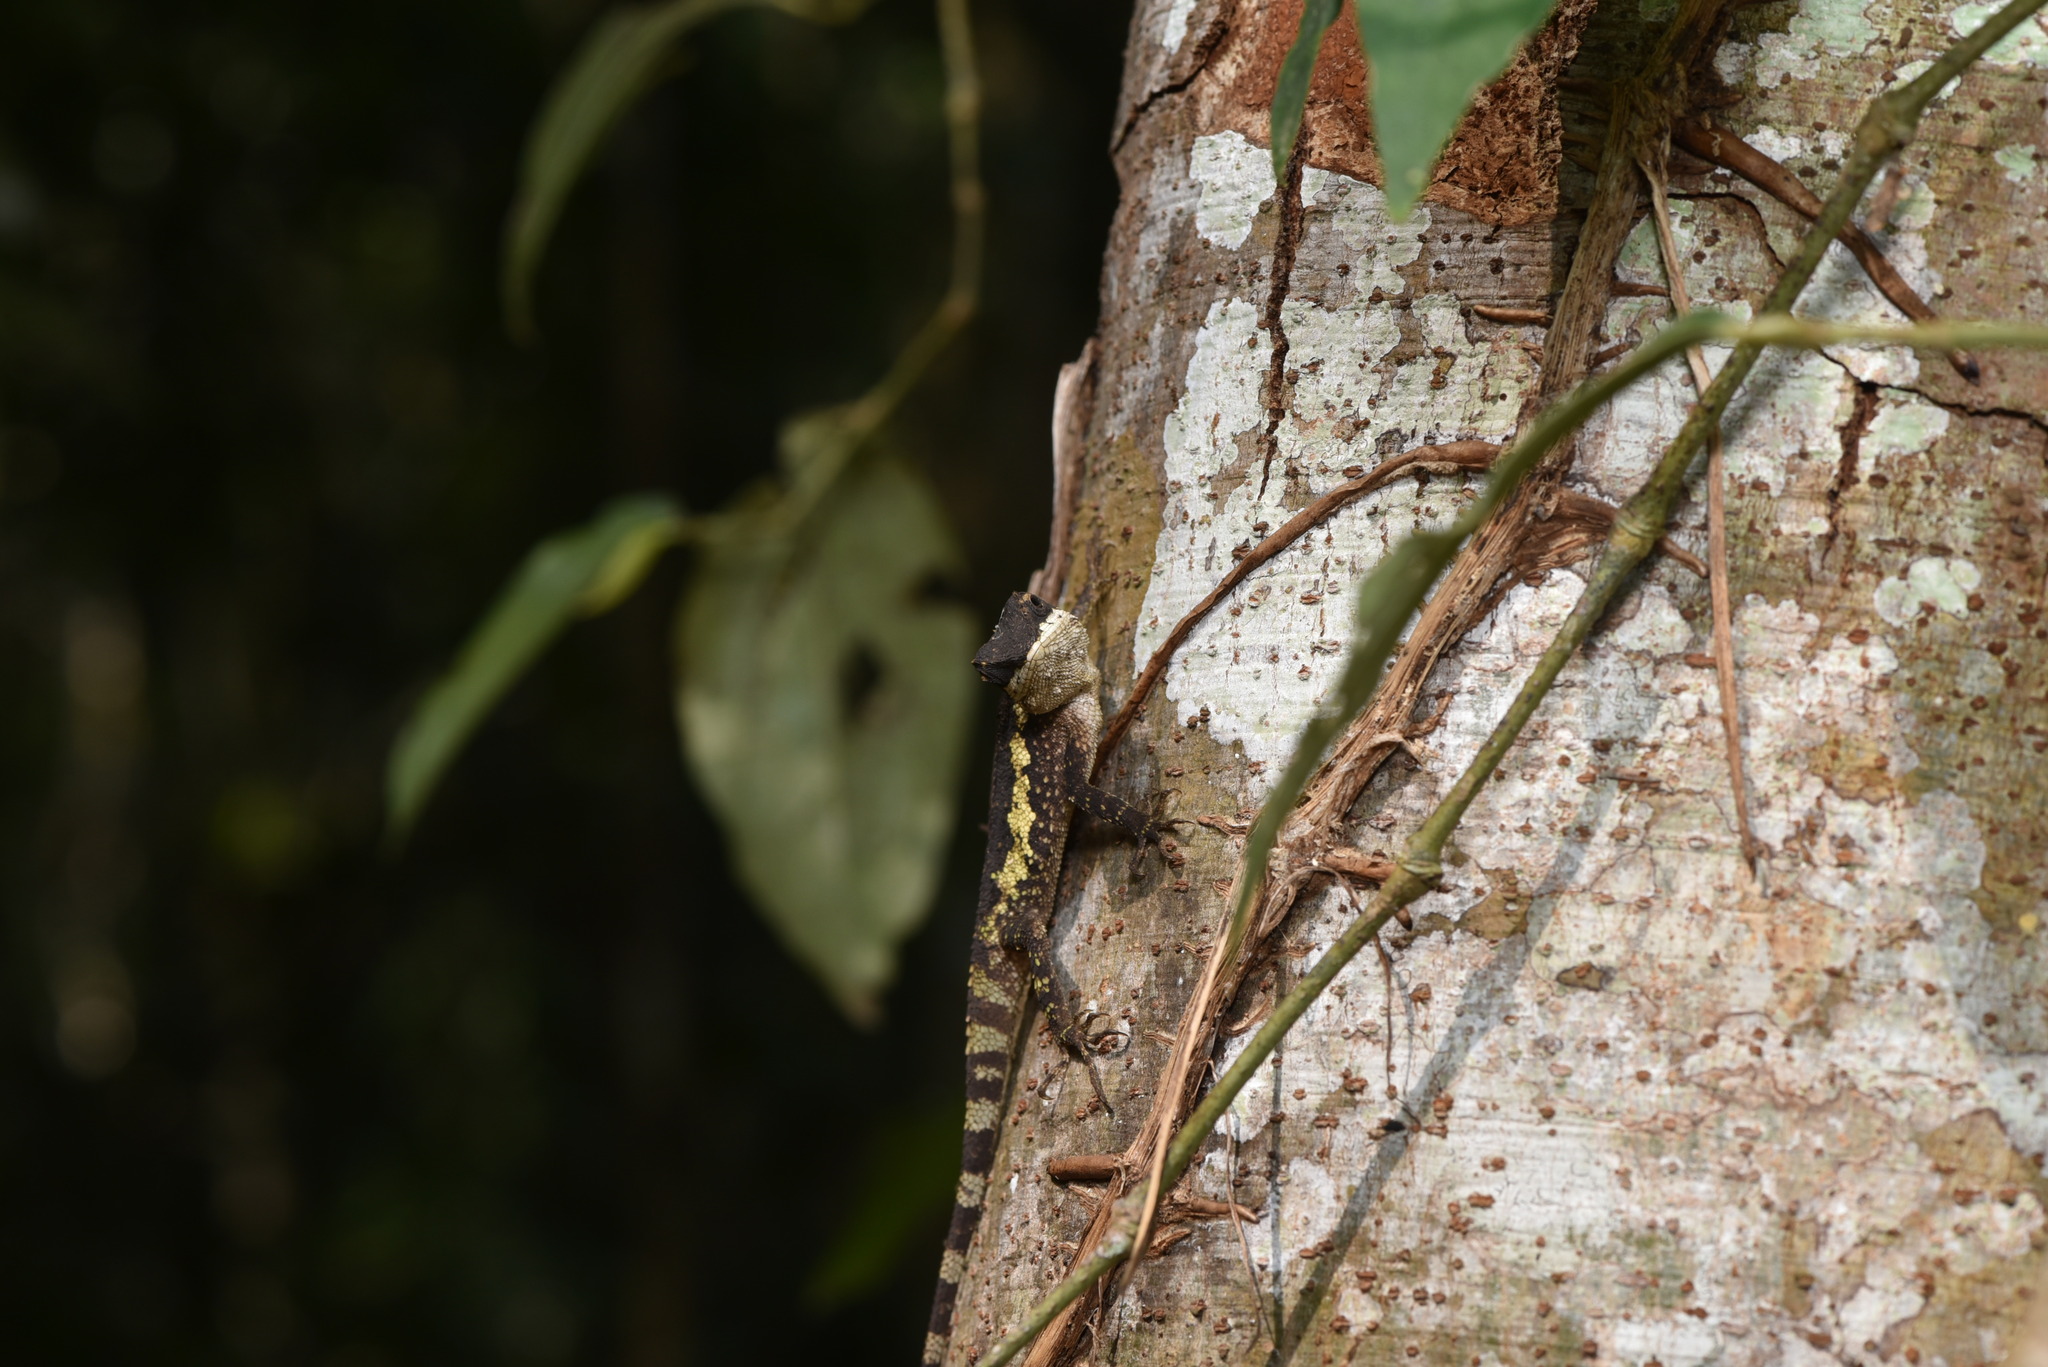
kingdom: Fungi
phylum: Basidiomycota
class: Agaricomycetes
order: Boletales
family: Diplocystidiaceae
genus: Diploderma
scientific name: Diploderma polygonatum
